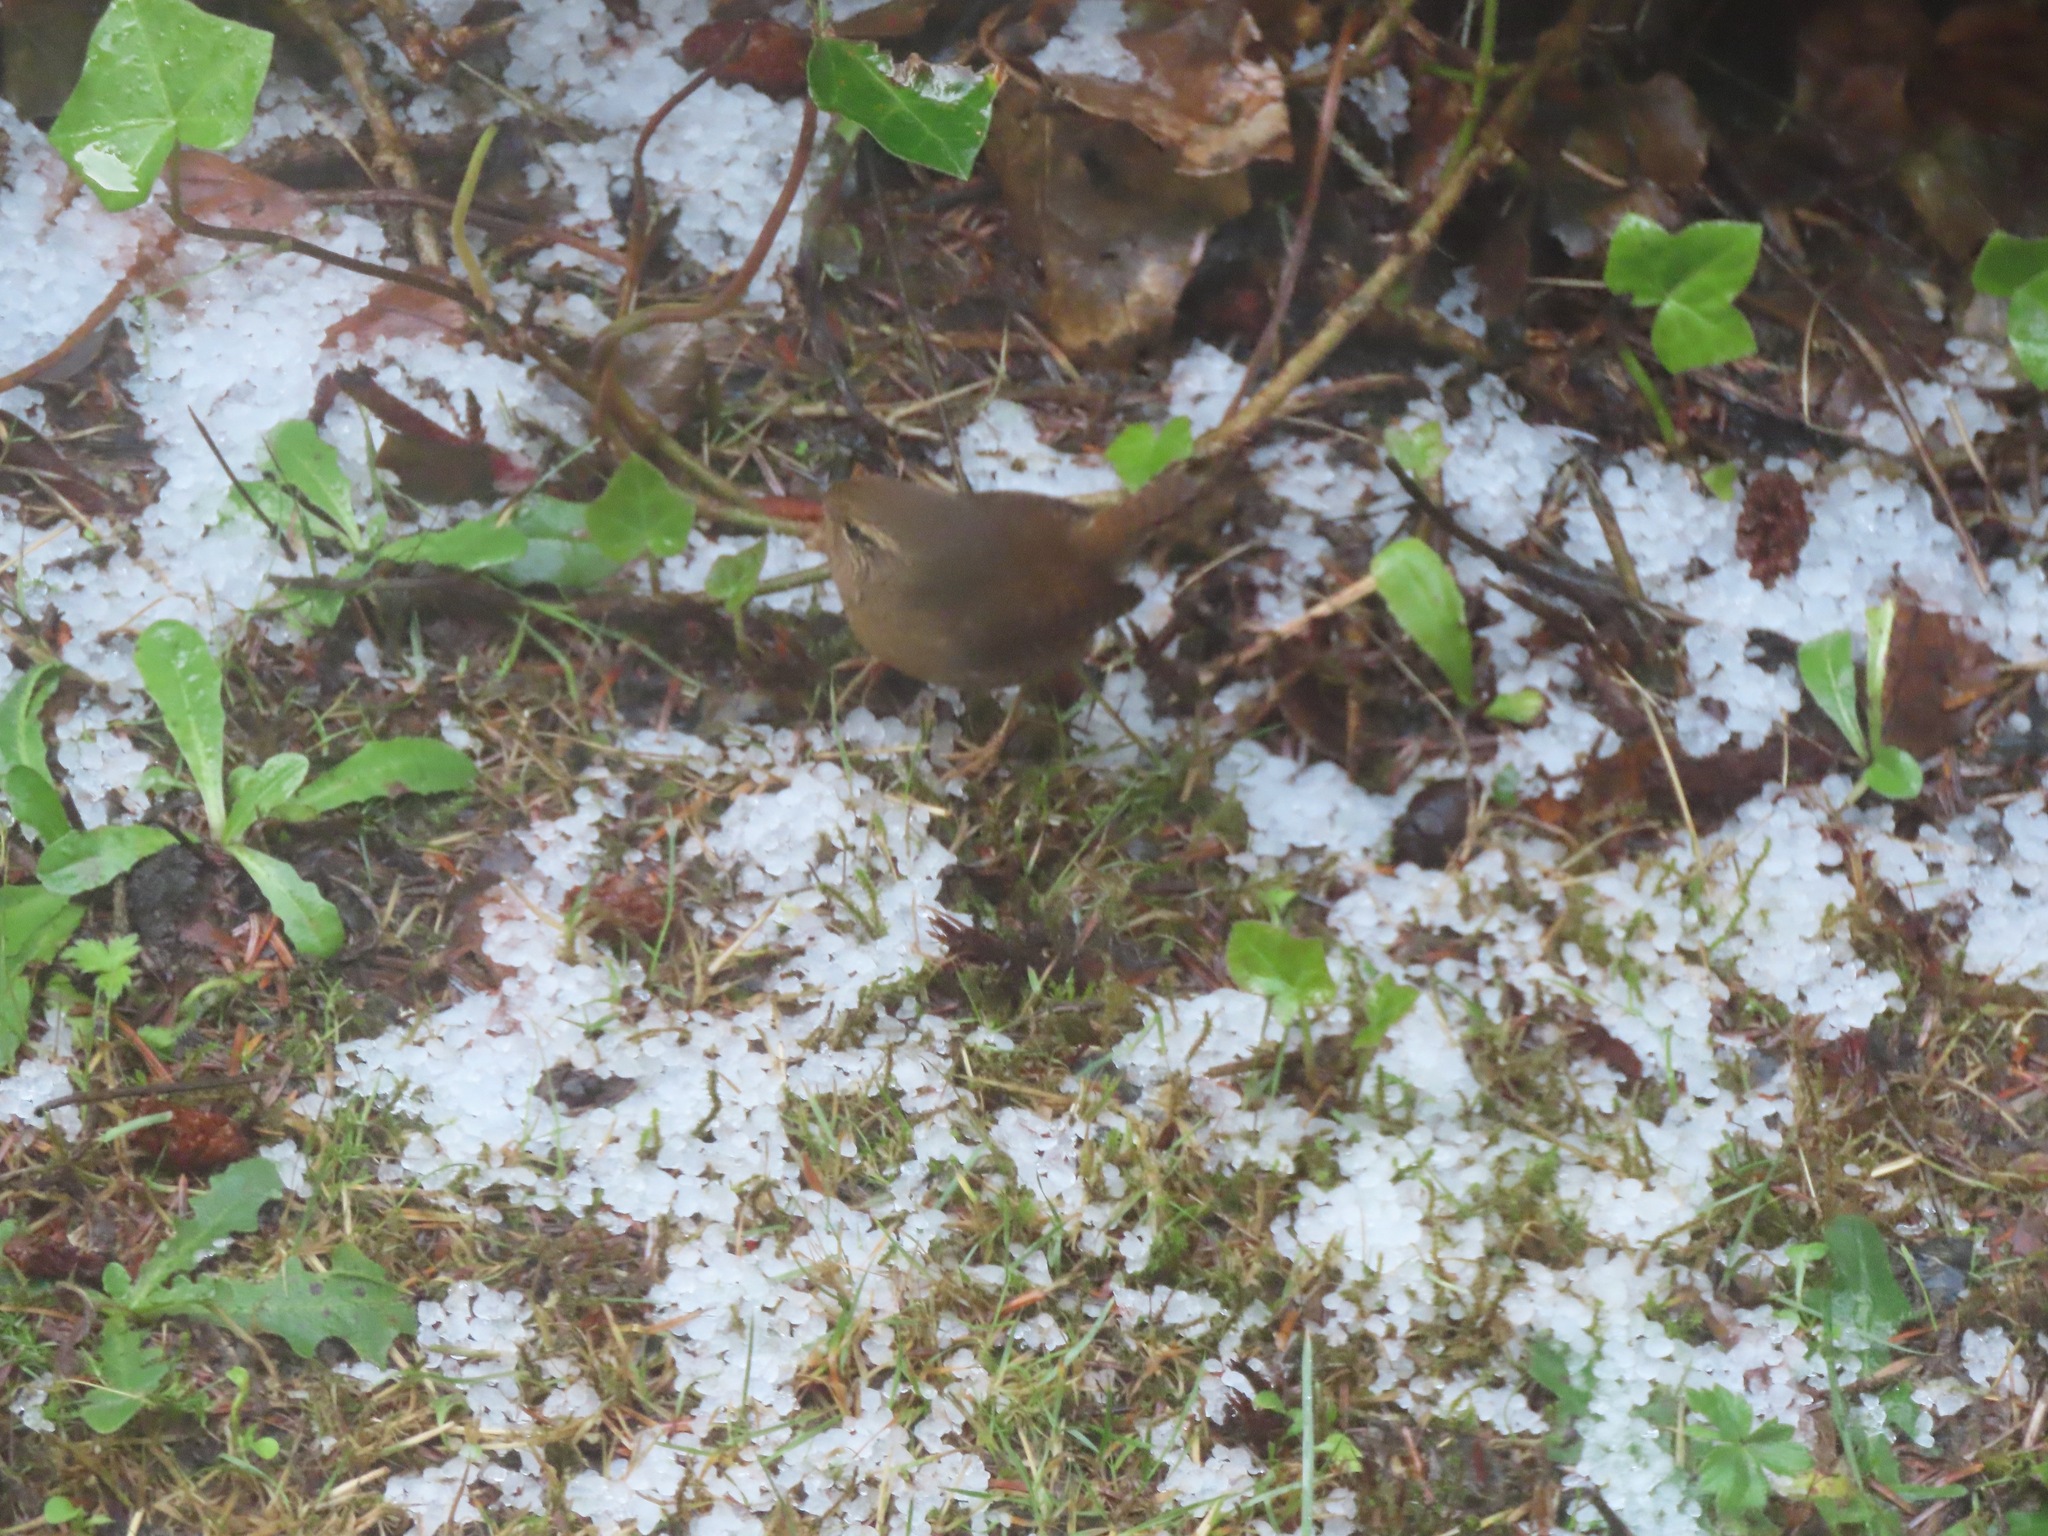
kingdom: Animalia
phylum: Chordata
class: Aves
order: Passeriformes
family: Troglodytidae
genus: Troglodytes
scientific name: Troglodytes pacificus
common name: Pacific wren
